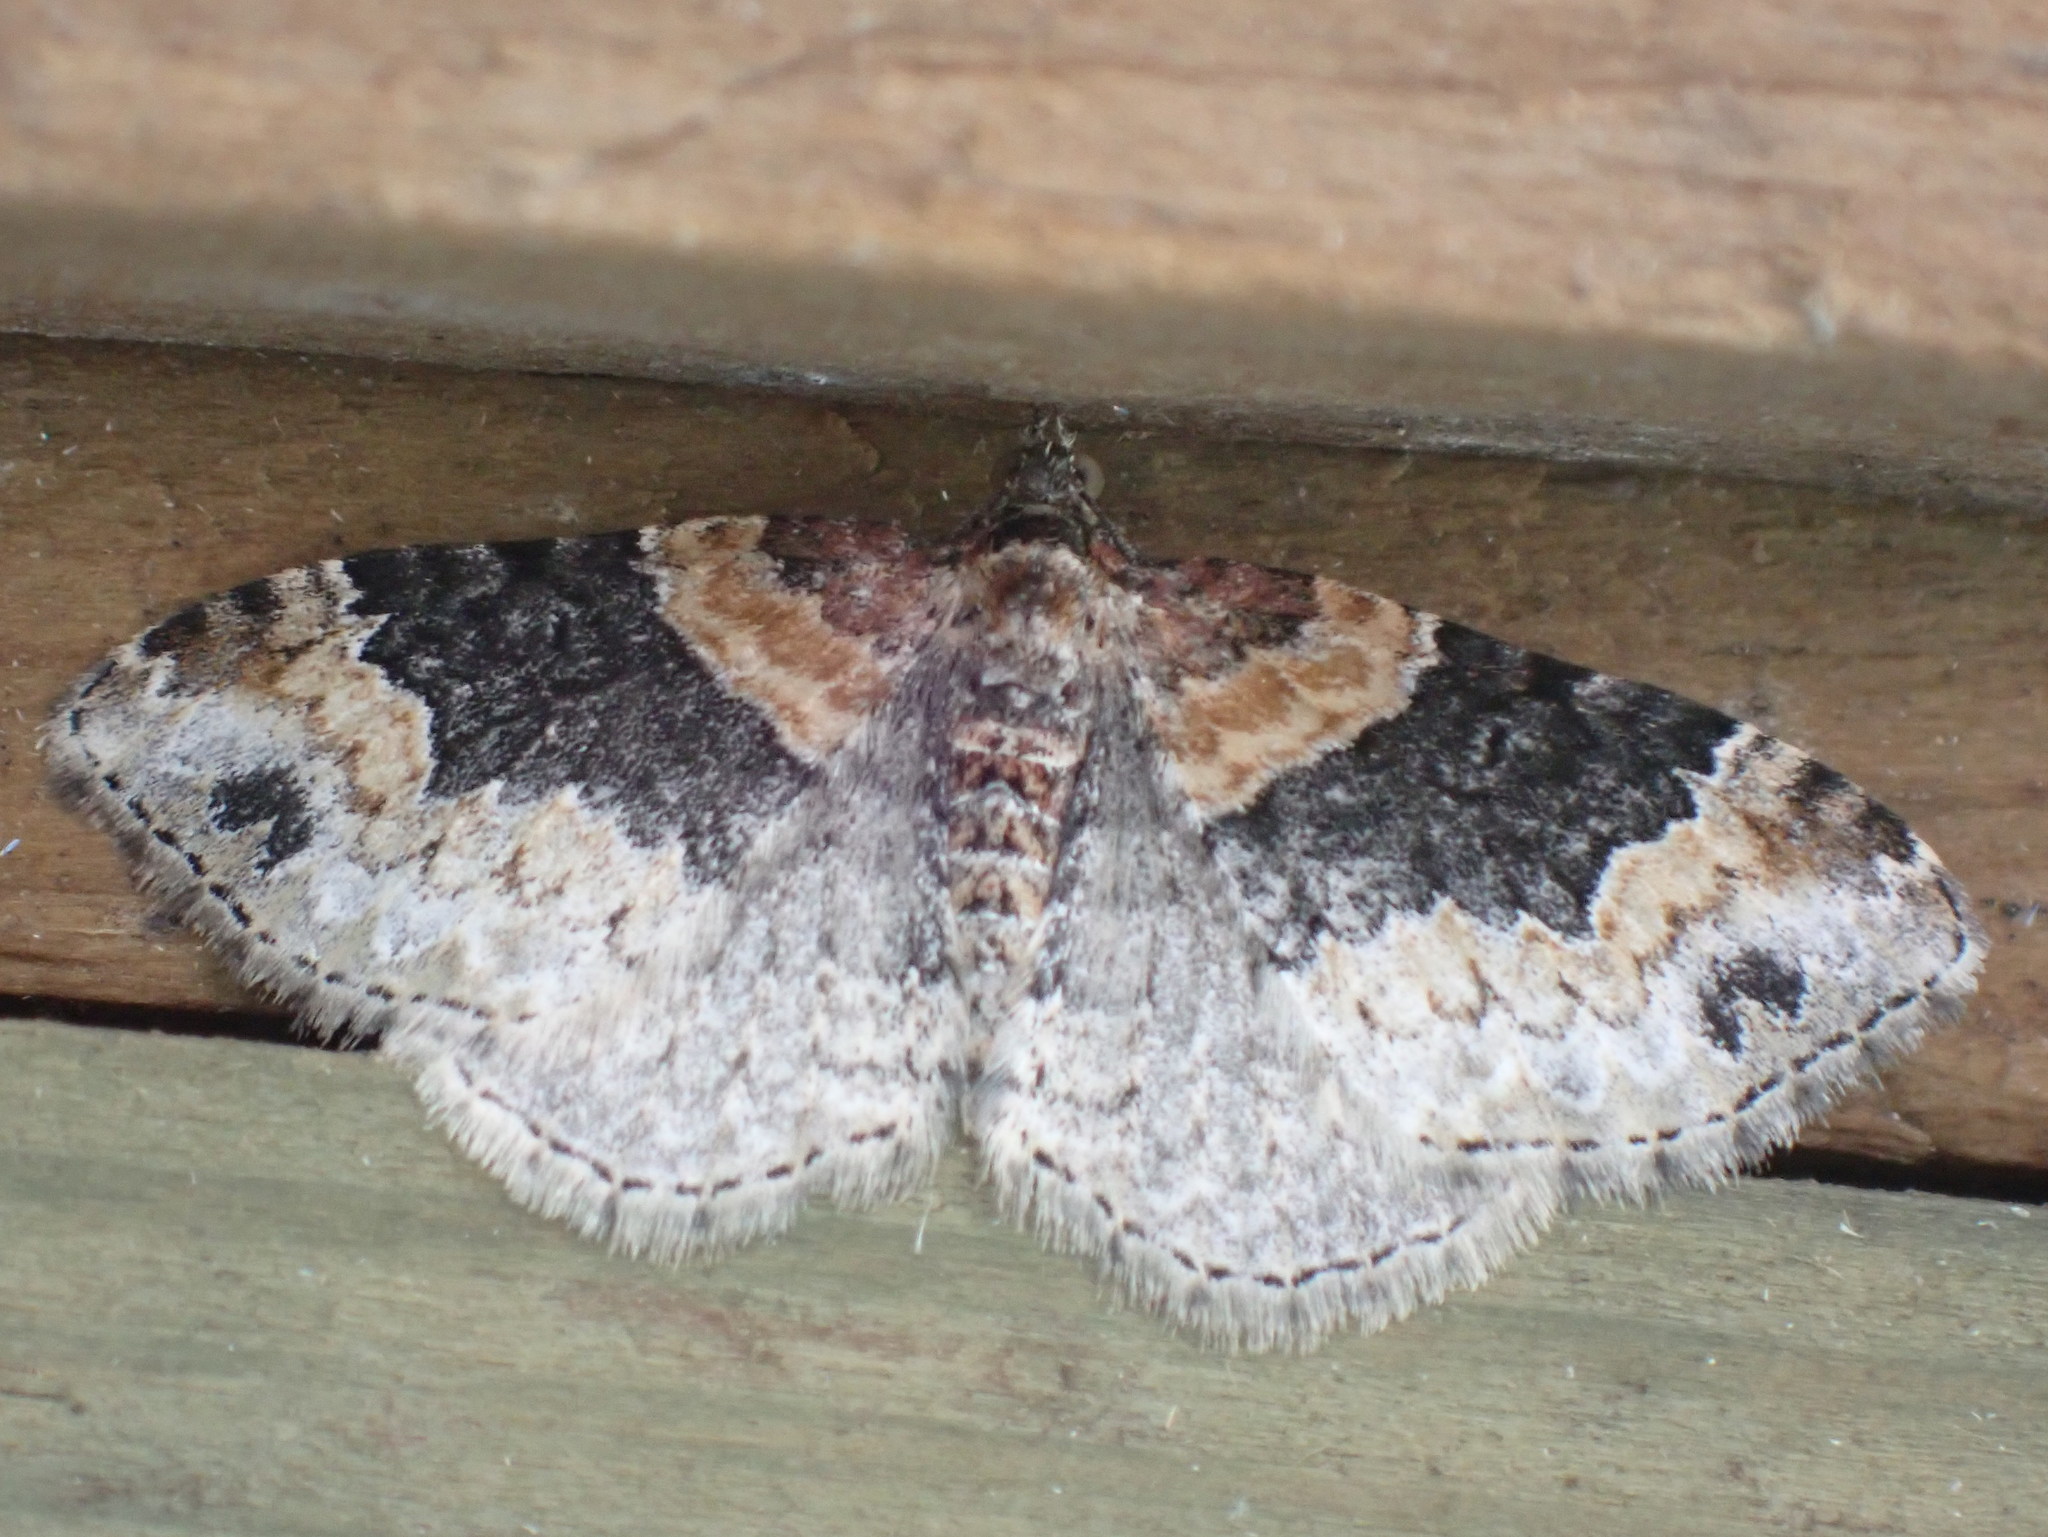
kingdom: Animalia
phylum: Arthropoda
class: Insecta
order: Lepidoptera
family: Geometridae
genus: Xanthorhoe
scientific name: Xanthorhoe ferrugata
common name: Dark-barred twin-spot carpet
